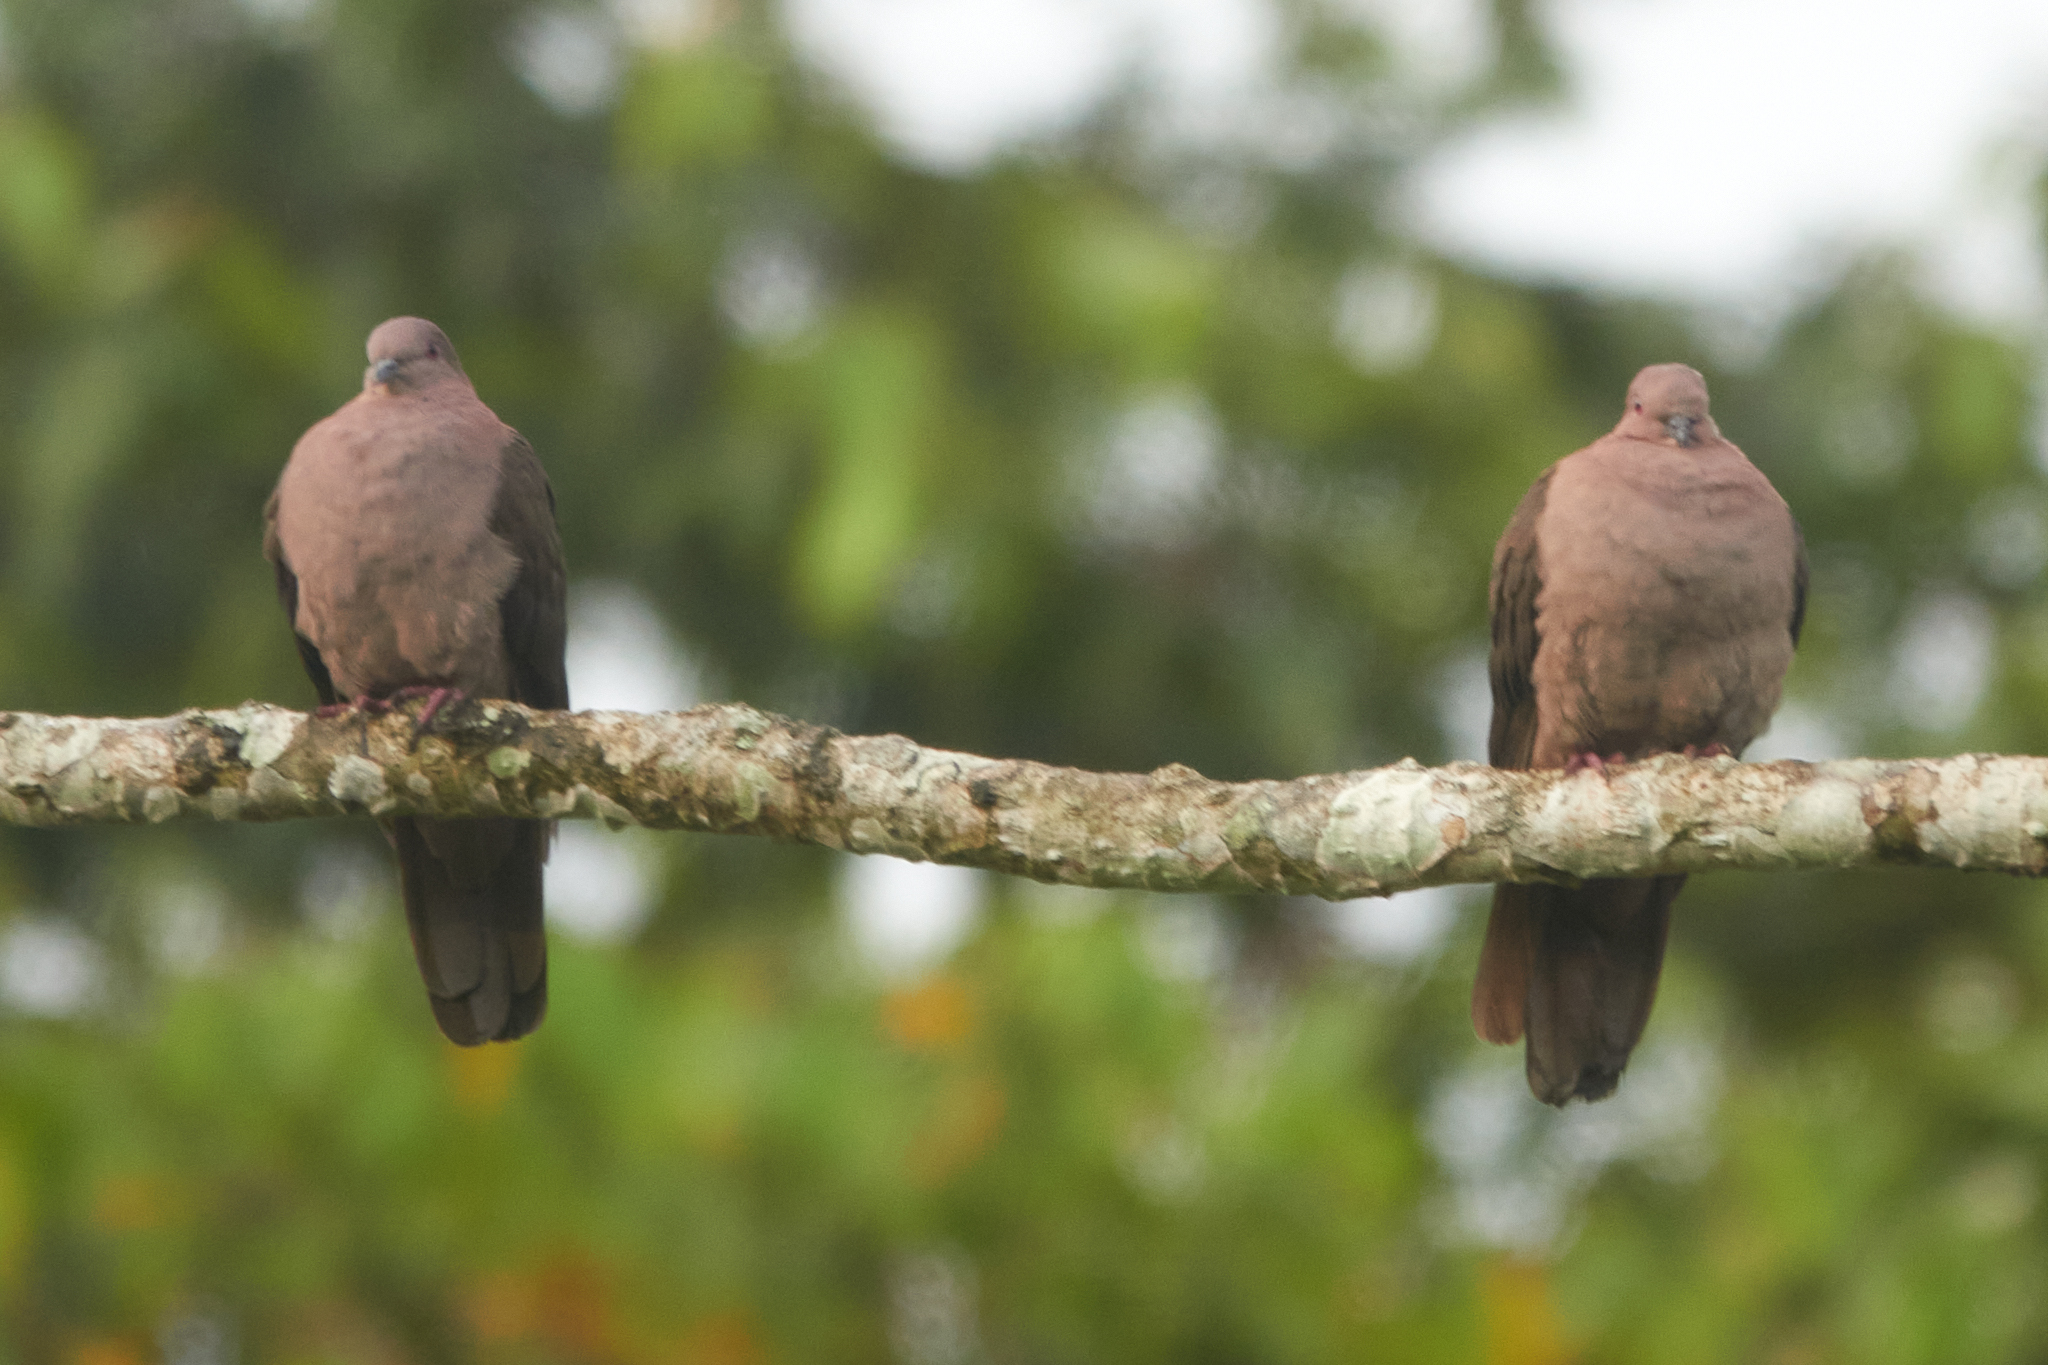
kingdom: Animalia
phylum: Chordata
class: Aves
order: Columbiformes
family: Columbidae
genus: Patagioenas
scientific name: Patagioenas nigrirostris
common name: Short-billed pigeon
